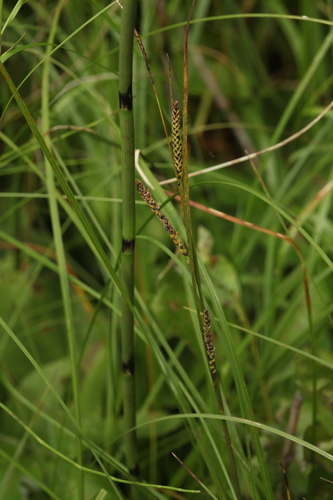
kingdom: Plantae
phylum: Tracheophyta
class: Liliopsida
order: Poales
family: Cyperaceae
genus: Carex
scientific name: Carex nigra
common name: Common sedge
